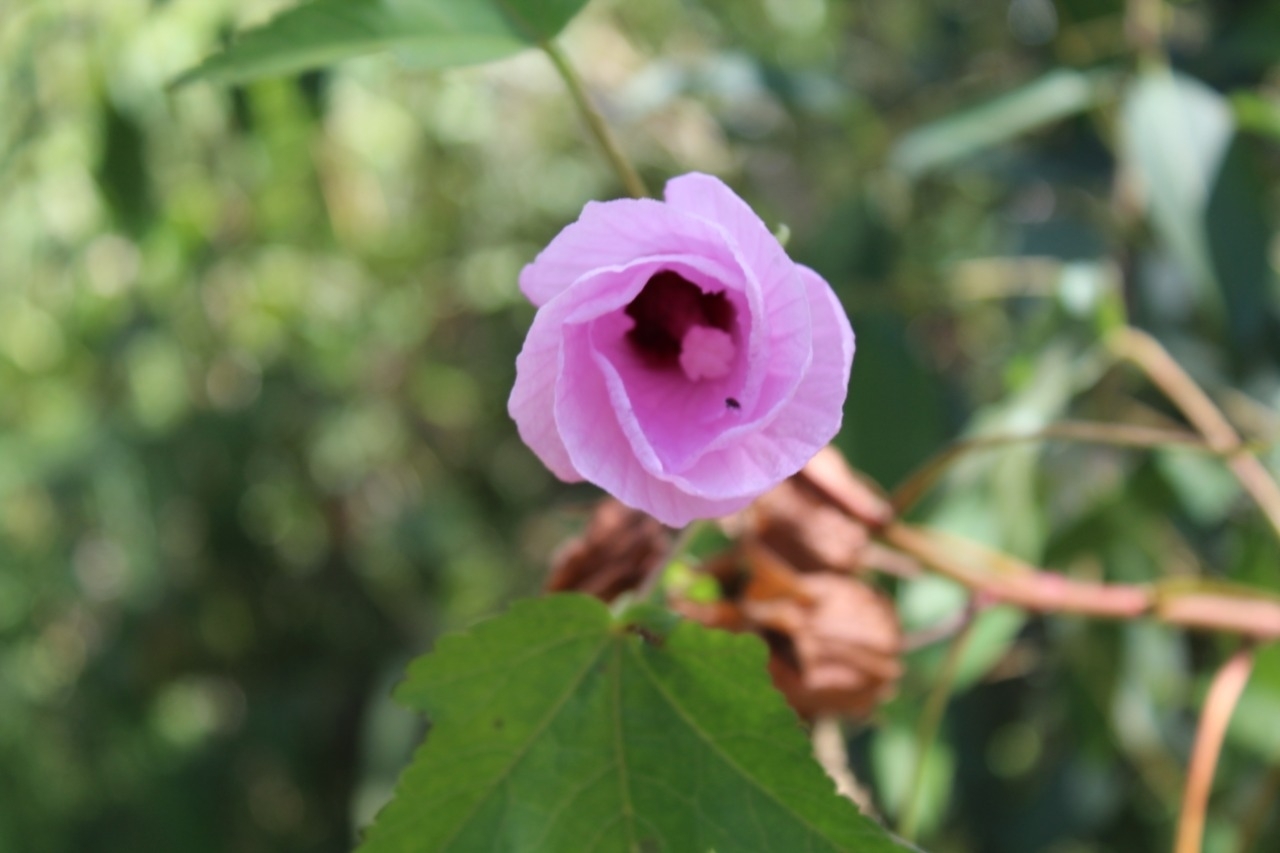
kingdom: Plantae
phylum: Tracheophyta
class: Magnoliopsida
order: Malvales
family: Malvaceae
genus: Hibiscus
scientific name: Hibiscus striatus
